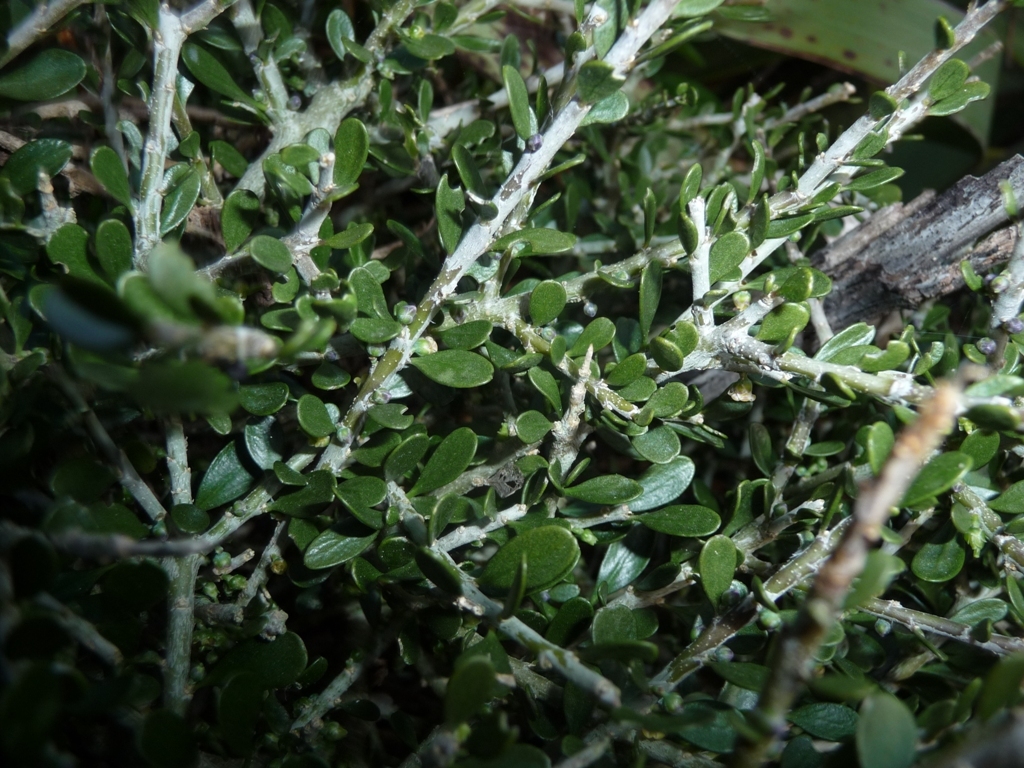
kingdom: Plantae
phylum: Tracheophyta
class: Magnoliopsida
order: Malpighiales
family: Violaceae
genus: Melicytus
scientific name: Melicytus crassifolius
